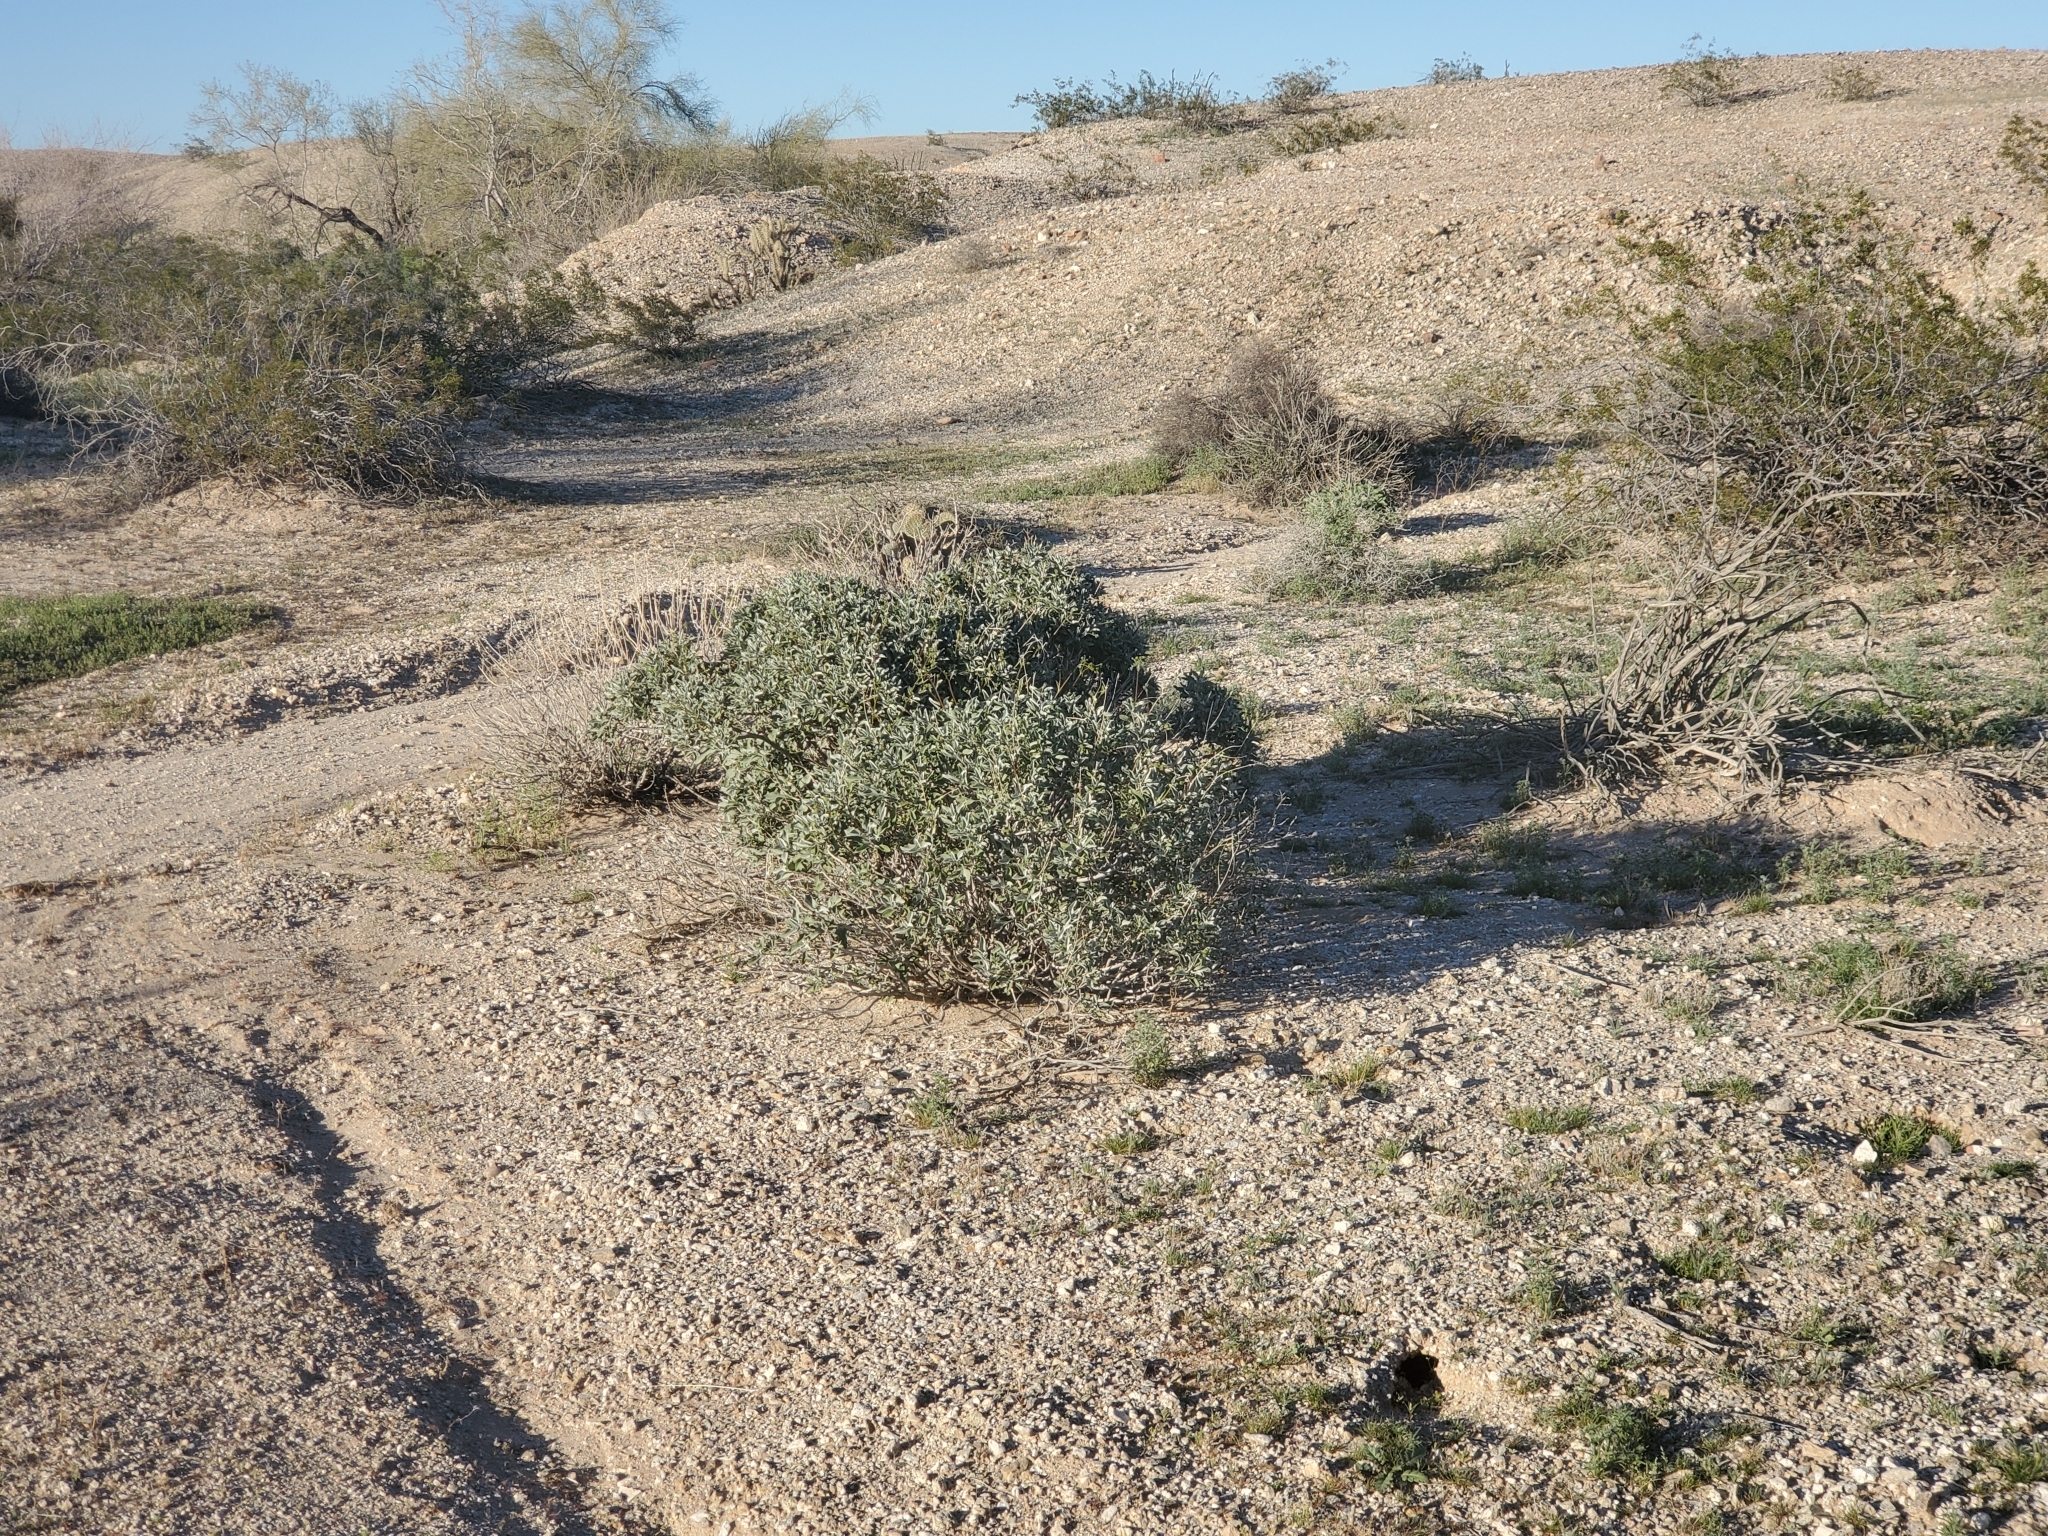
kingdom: Plantae
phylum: Tracheophyta
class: Magnoliopsida
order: Asterales
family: Asteraceae
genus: Encelia
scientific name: Encelia farinosa
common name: Brittlebush
